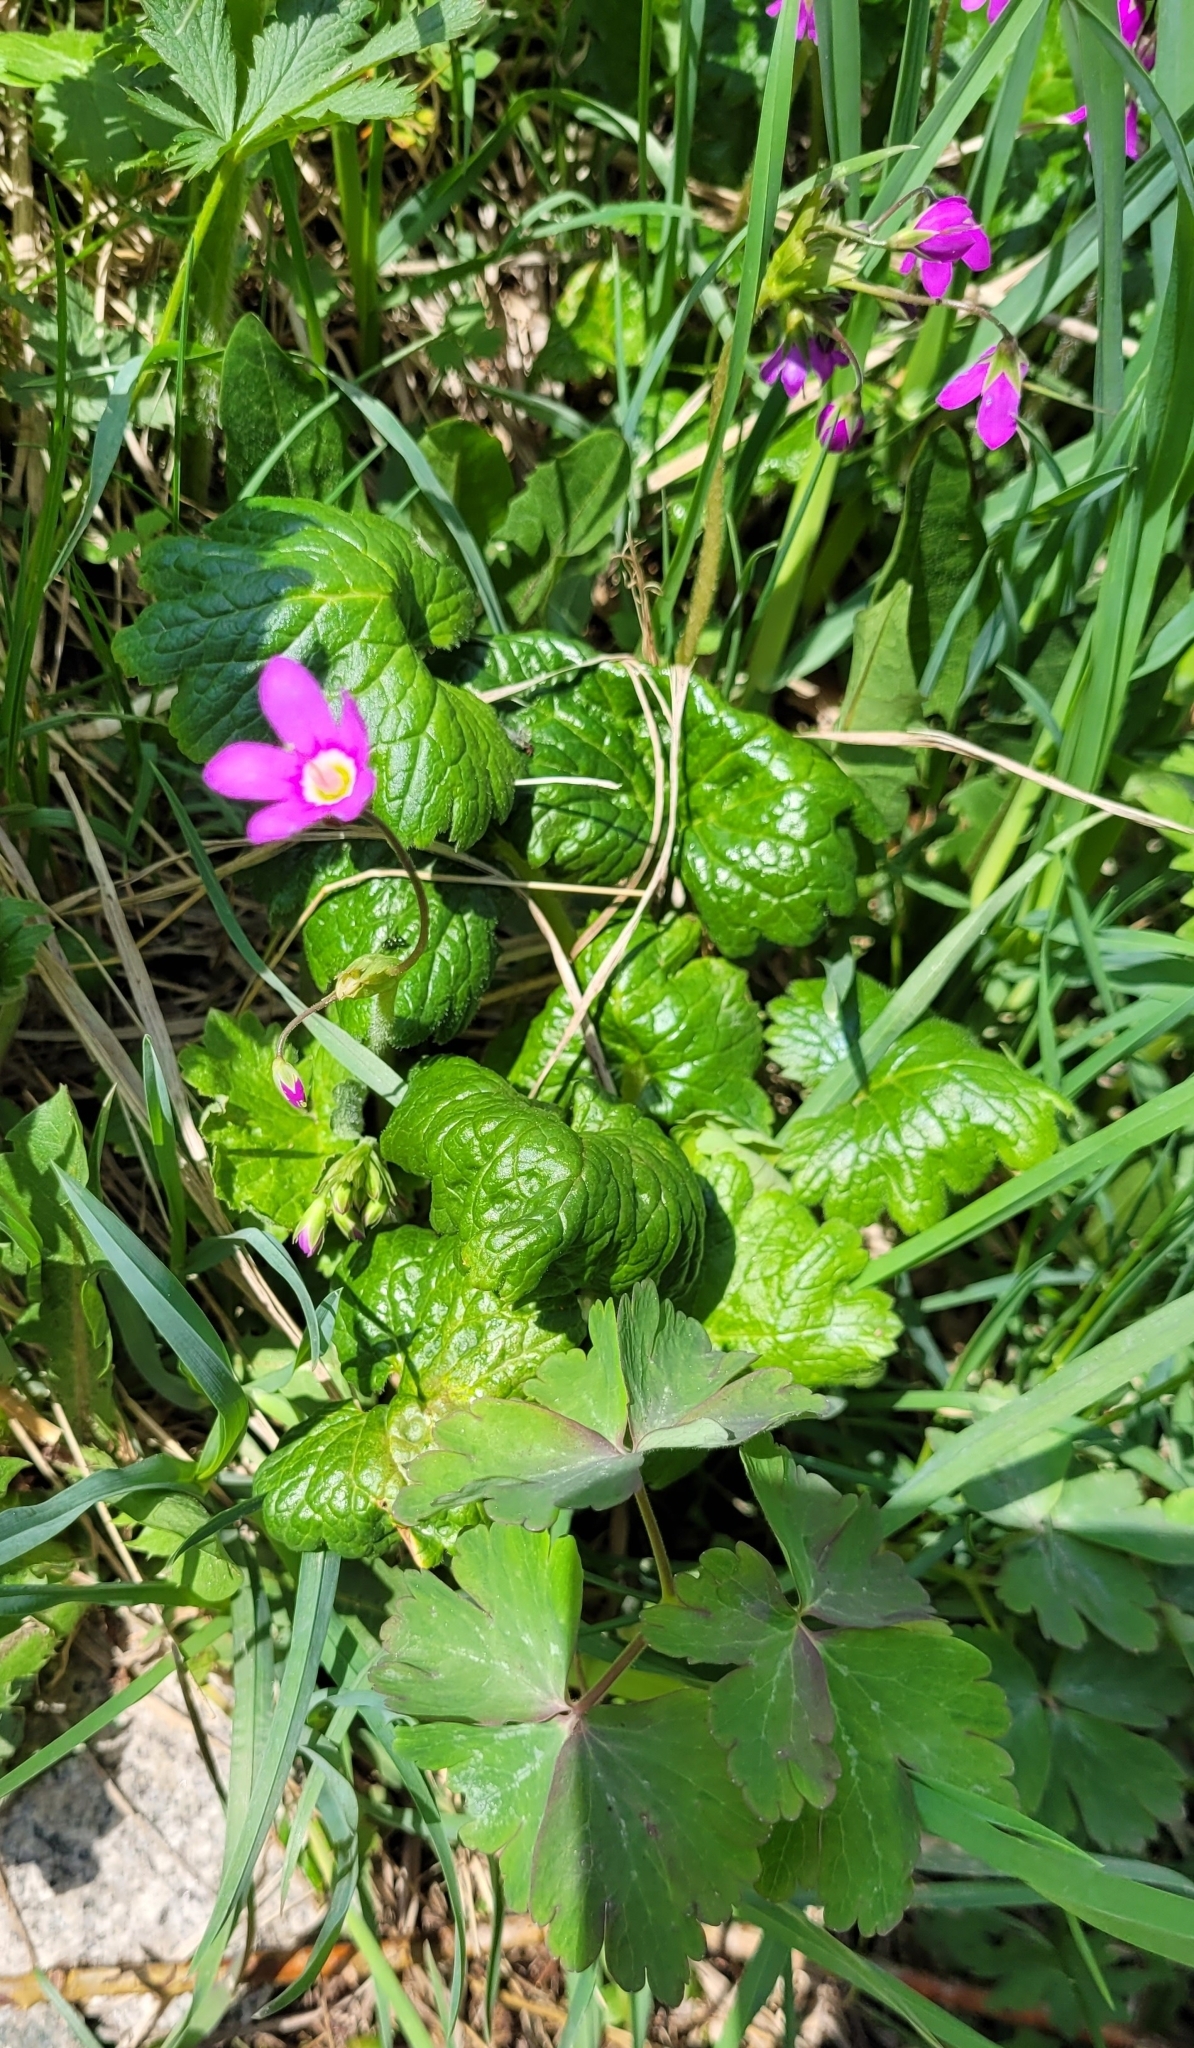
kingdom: Plantae
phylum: Tracheophyta
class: Magnoliopsida
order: Ericales
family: Primulaceae
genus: Primula
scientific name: Primula matthioli
